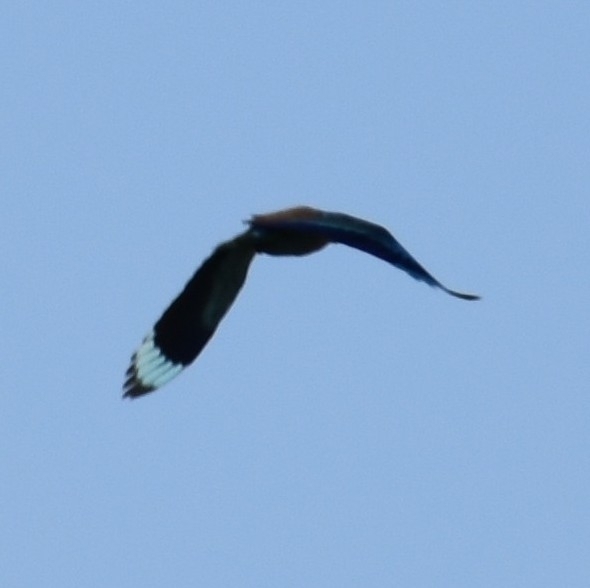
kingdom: Animalia
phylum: Chordata
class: Aves
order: Coraciiformes
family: Coraciidae
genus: Coracias
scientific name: Coracias benghalensis
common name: Indian roller
